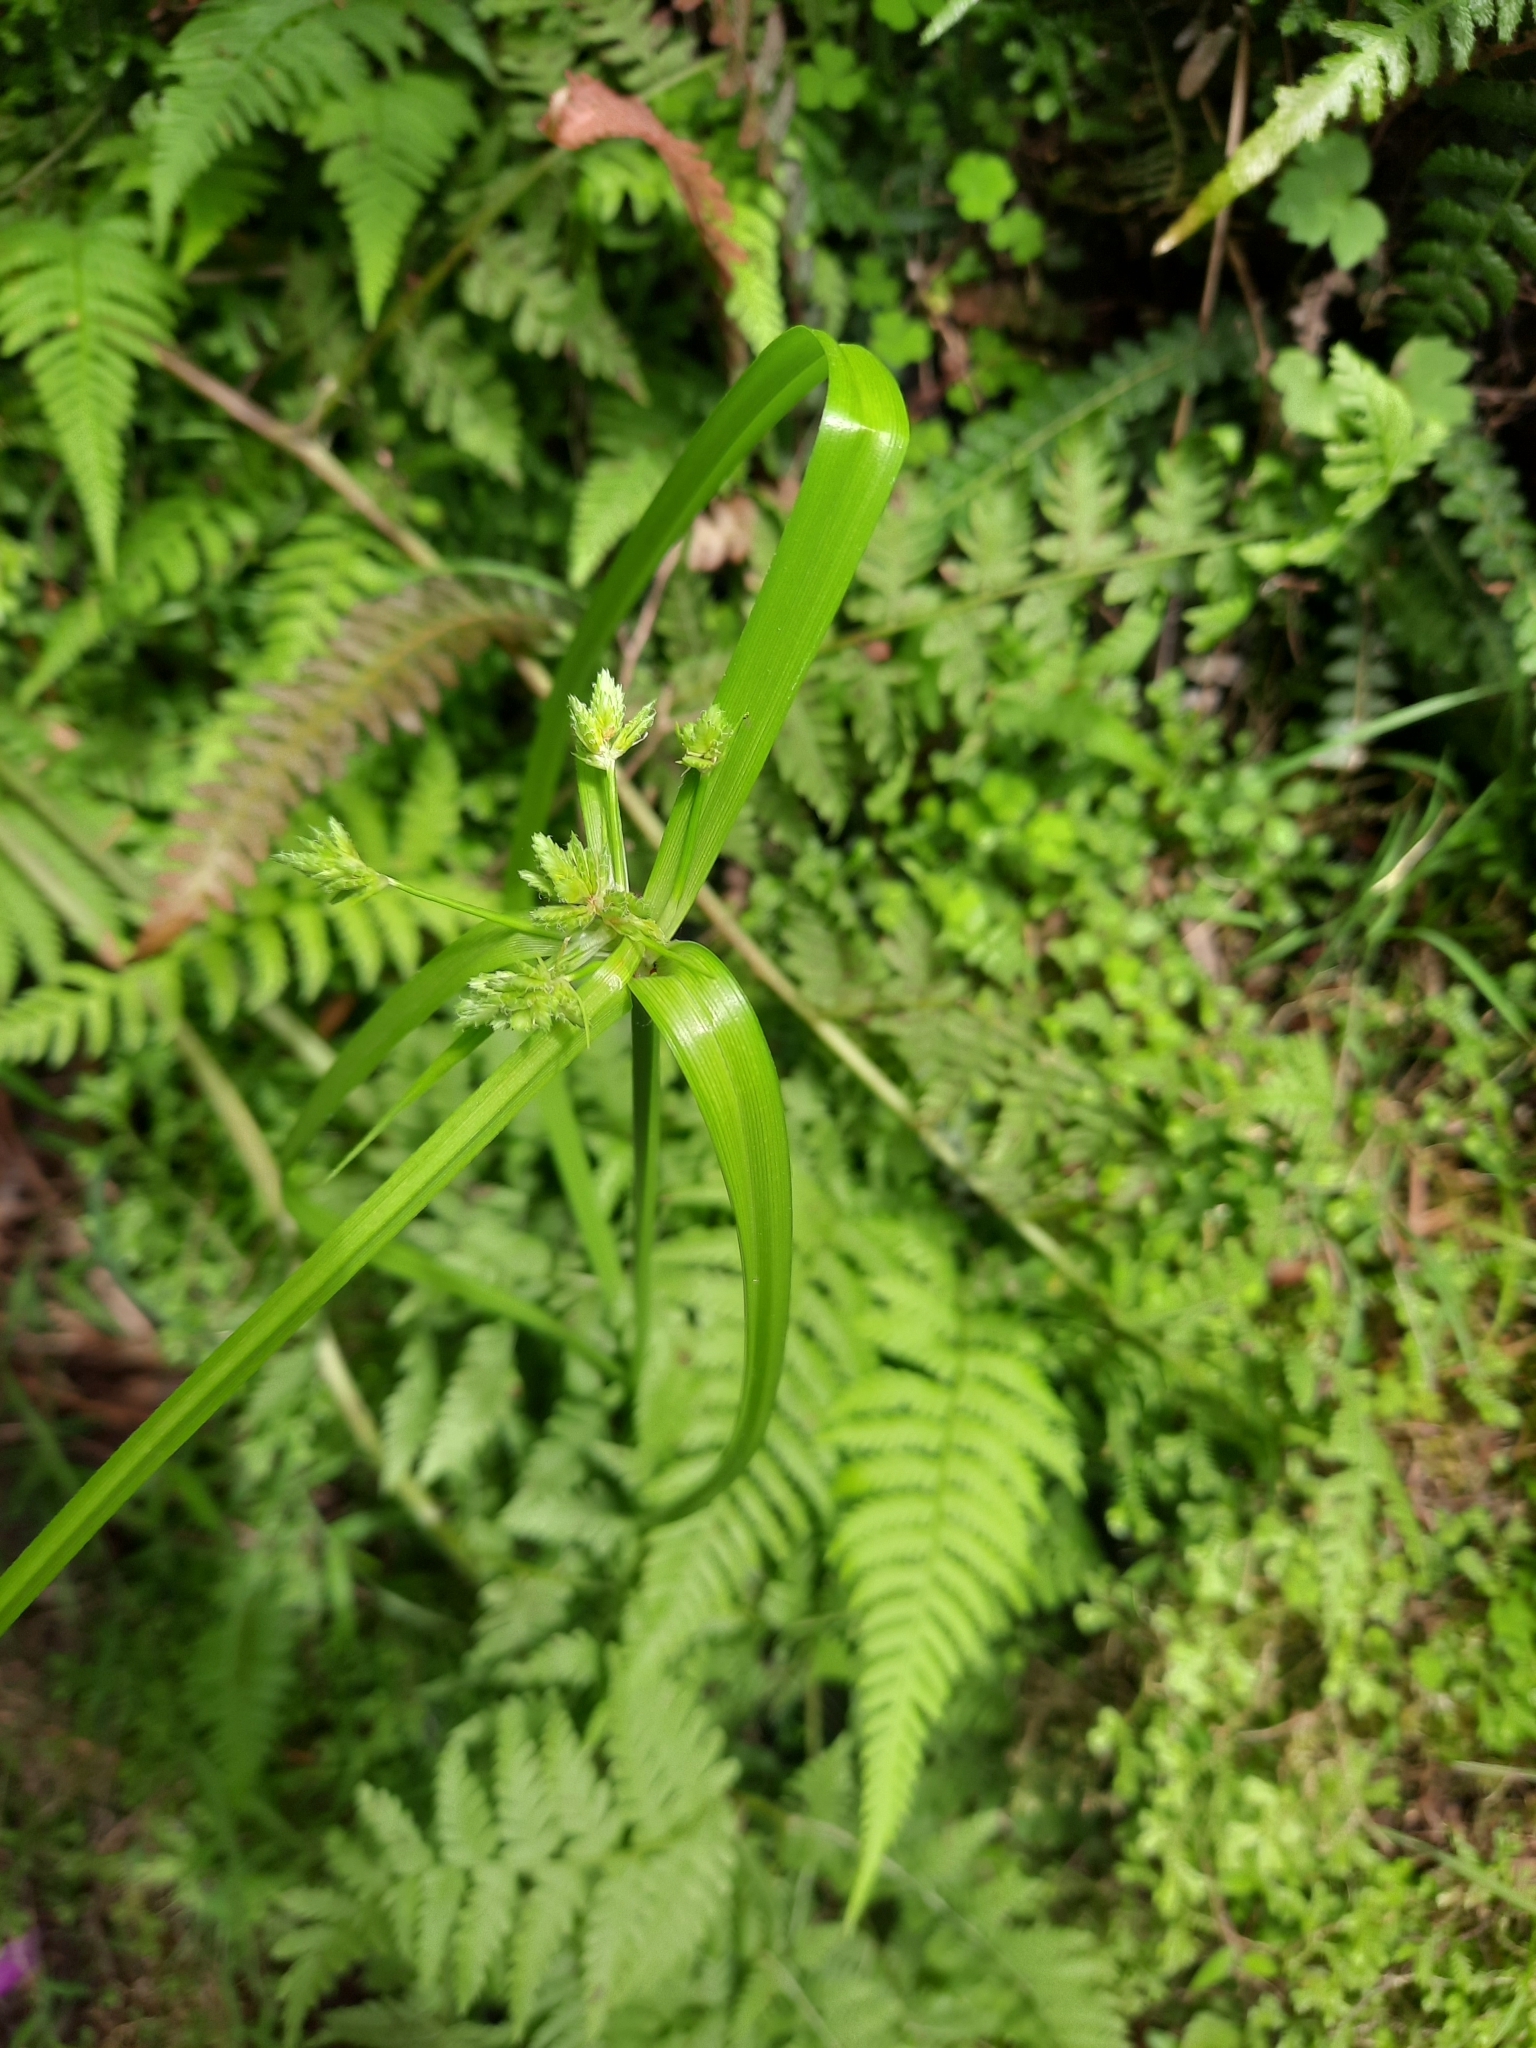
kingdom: Plantae
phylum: Tracheophyta
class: Liliopsida
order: Poales
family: Cyperaceae
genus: Cyperus
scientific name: Cyperus eragrostis
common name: Tall flatsedge
